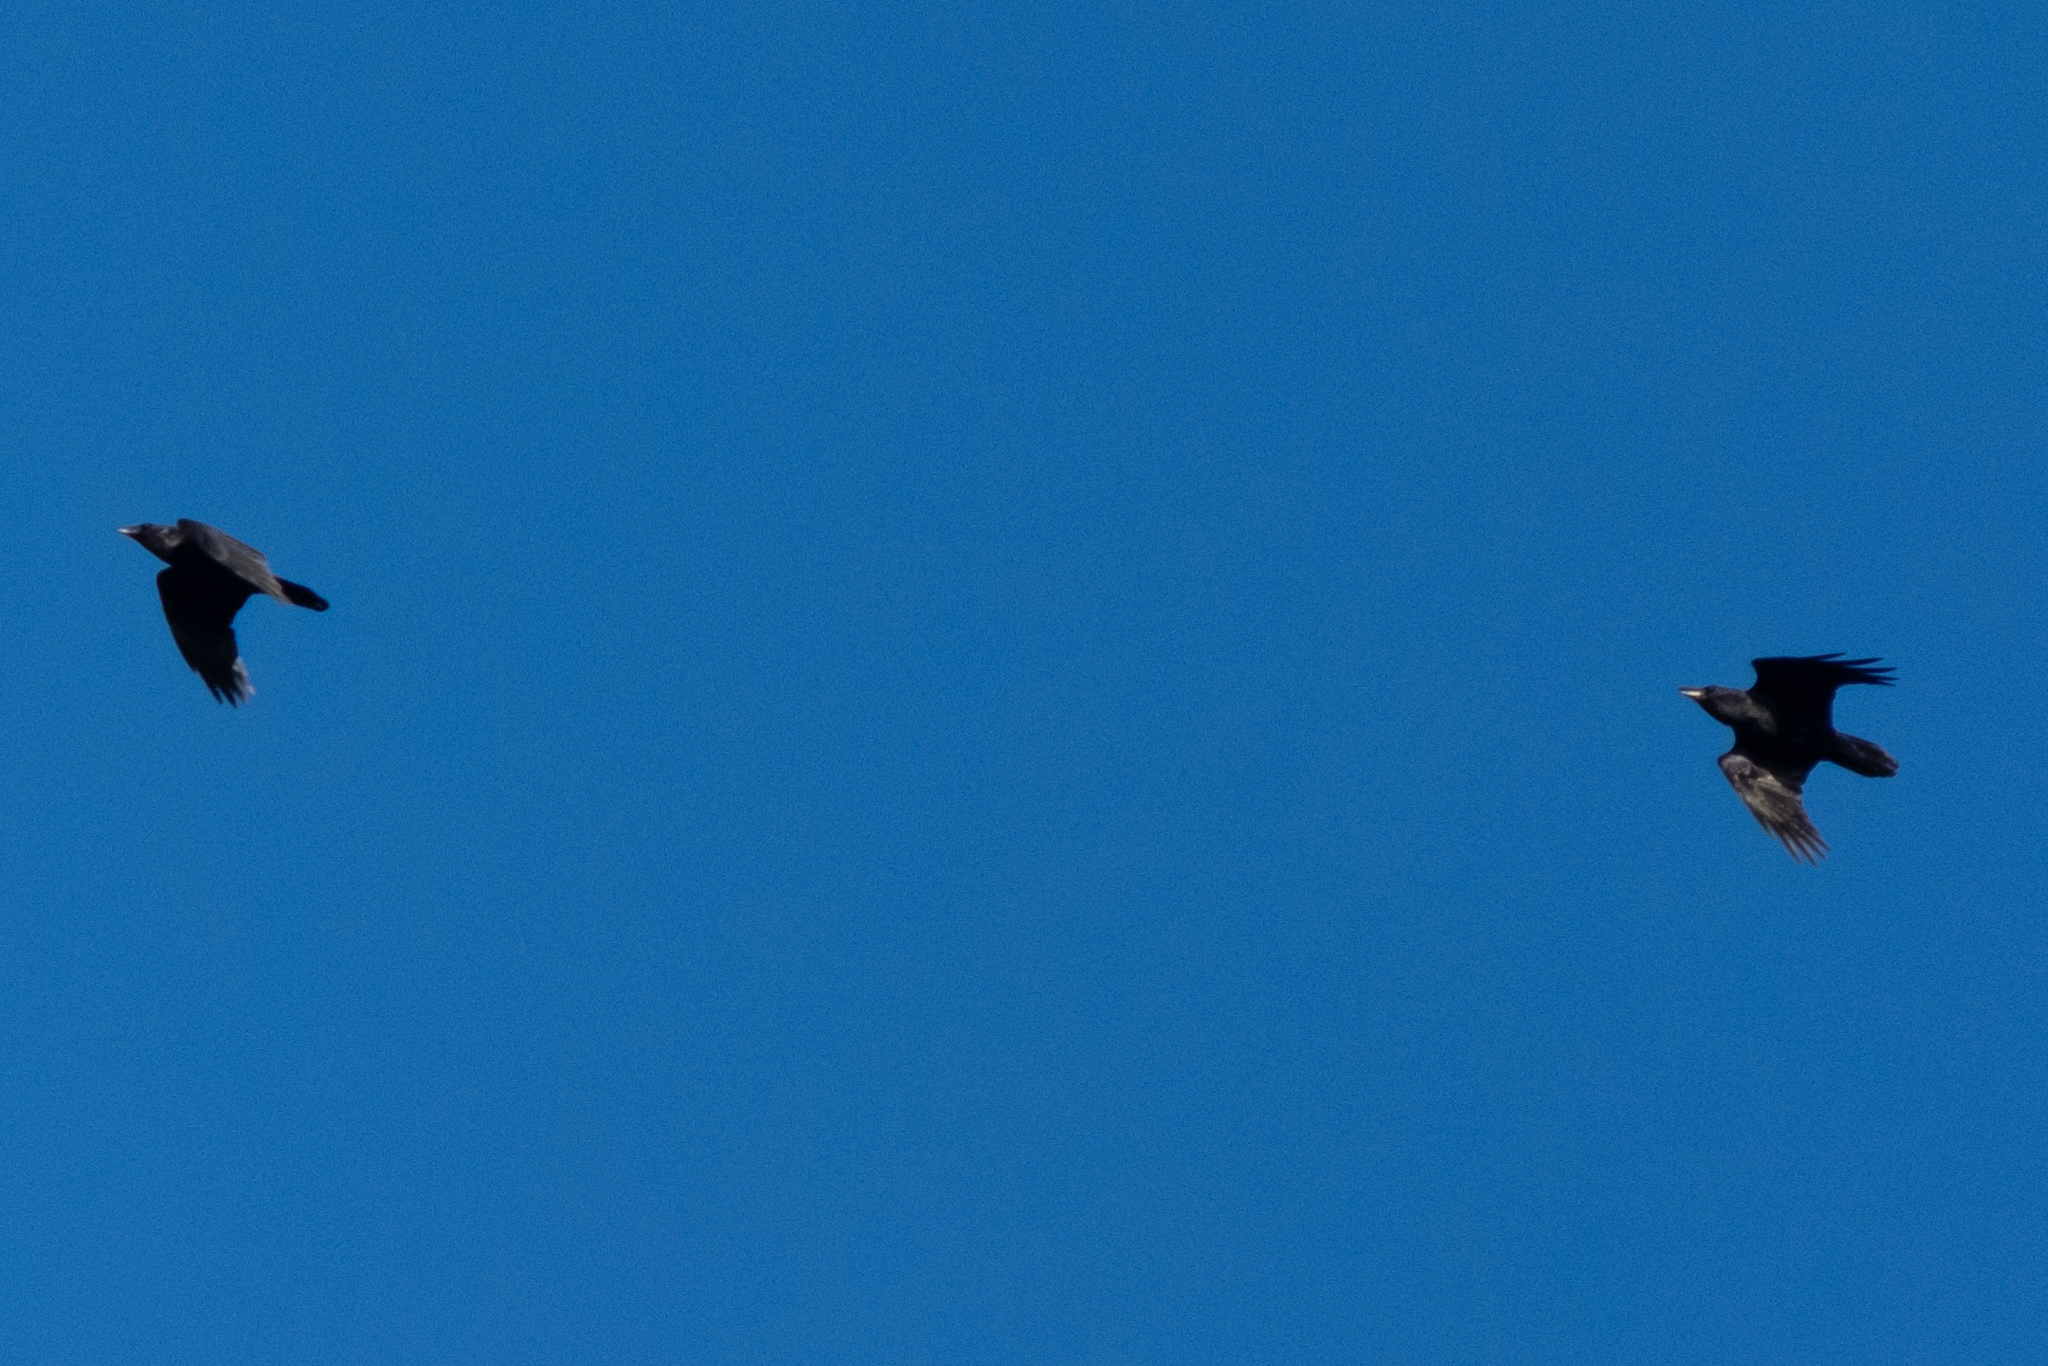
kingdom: Animalia
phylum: Chordata
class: Aves
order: Passeriformes
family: Corvidae
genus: Corvus
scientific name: Corvus corax
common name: Common raven
